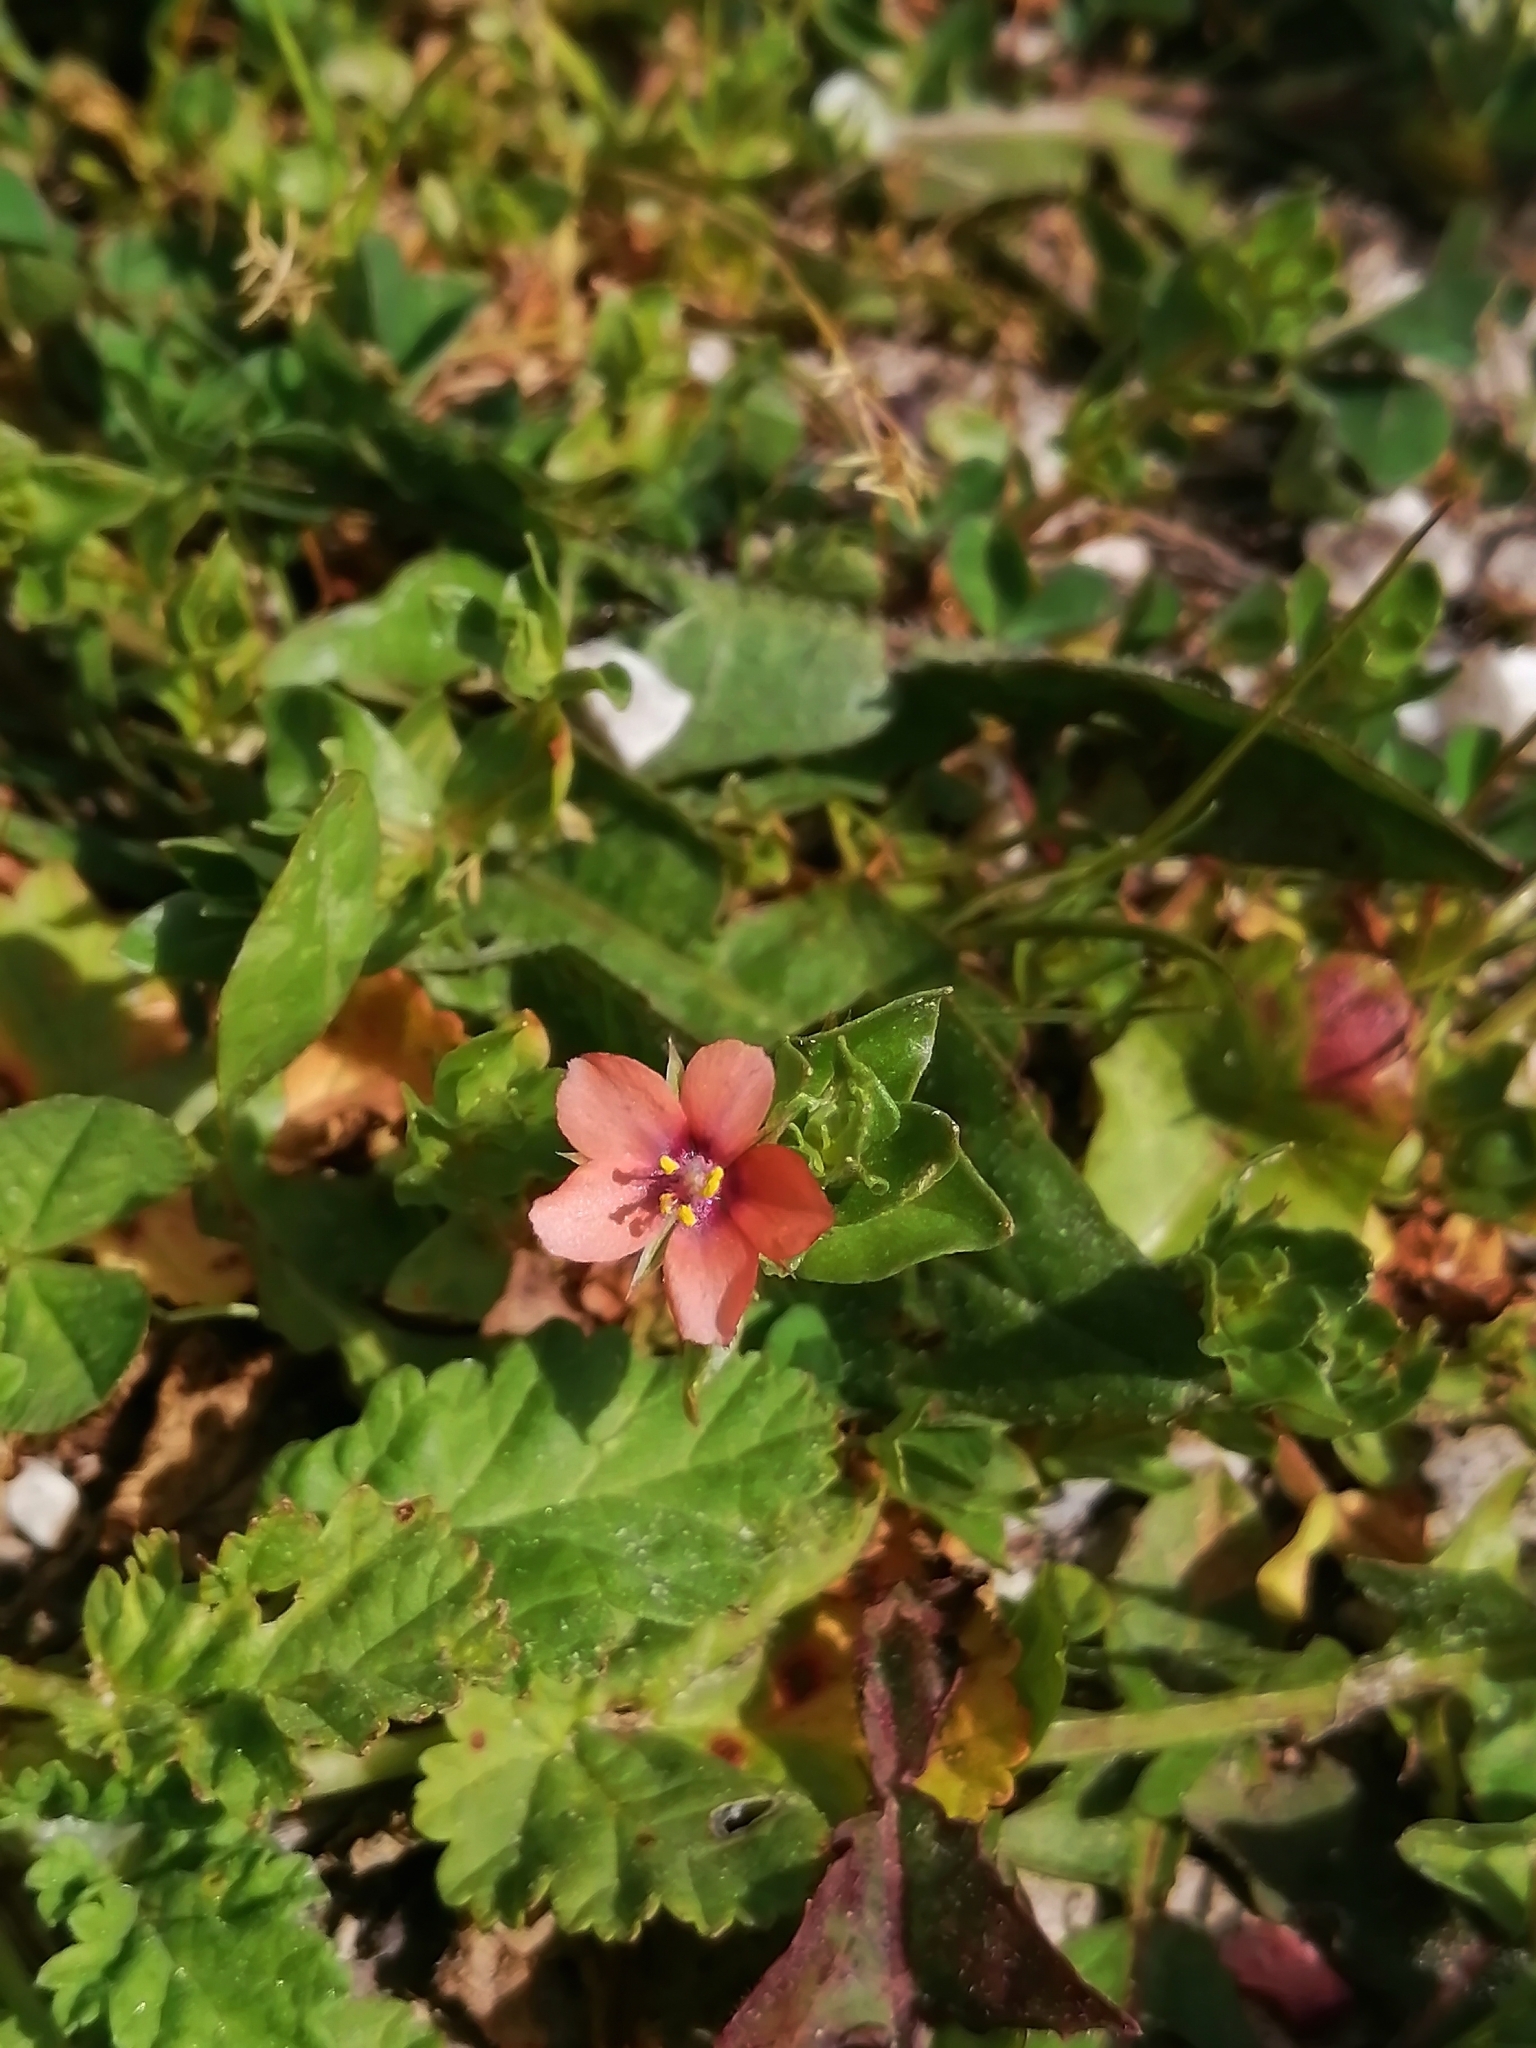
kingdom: Plantae
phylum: Tracheophyta
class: Magnoliopsida
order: Ericales
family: Primulaceae
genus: Lysimachia
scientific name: Lysimachia arvensis
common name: Scarlet pimpernel
